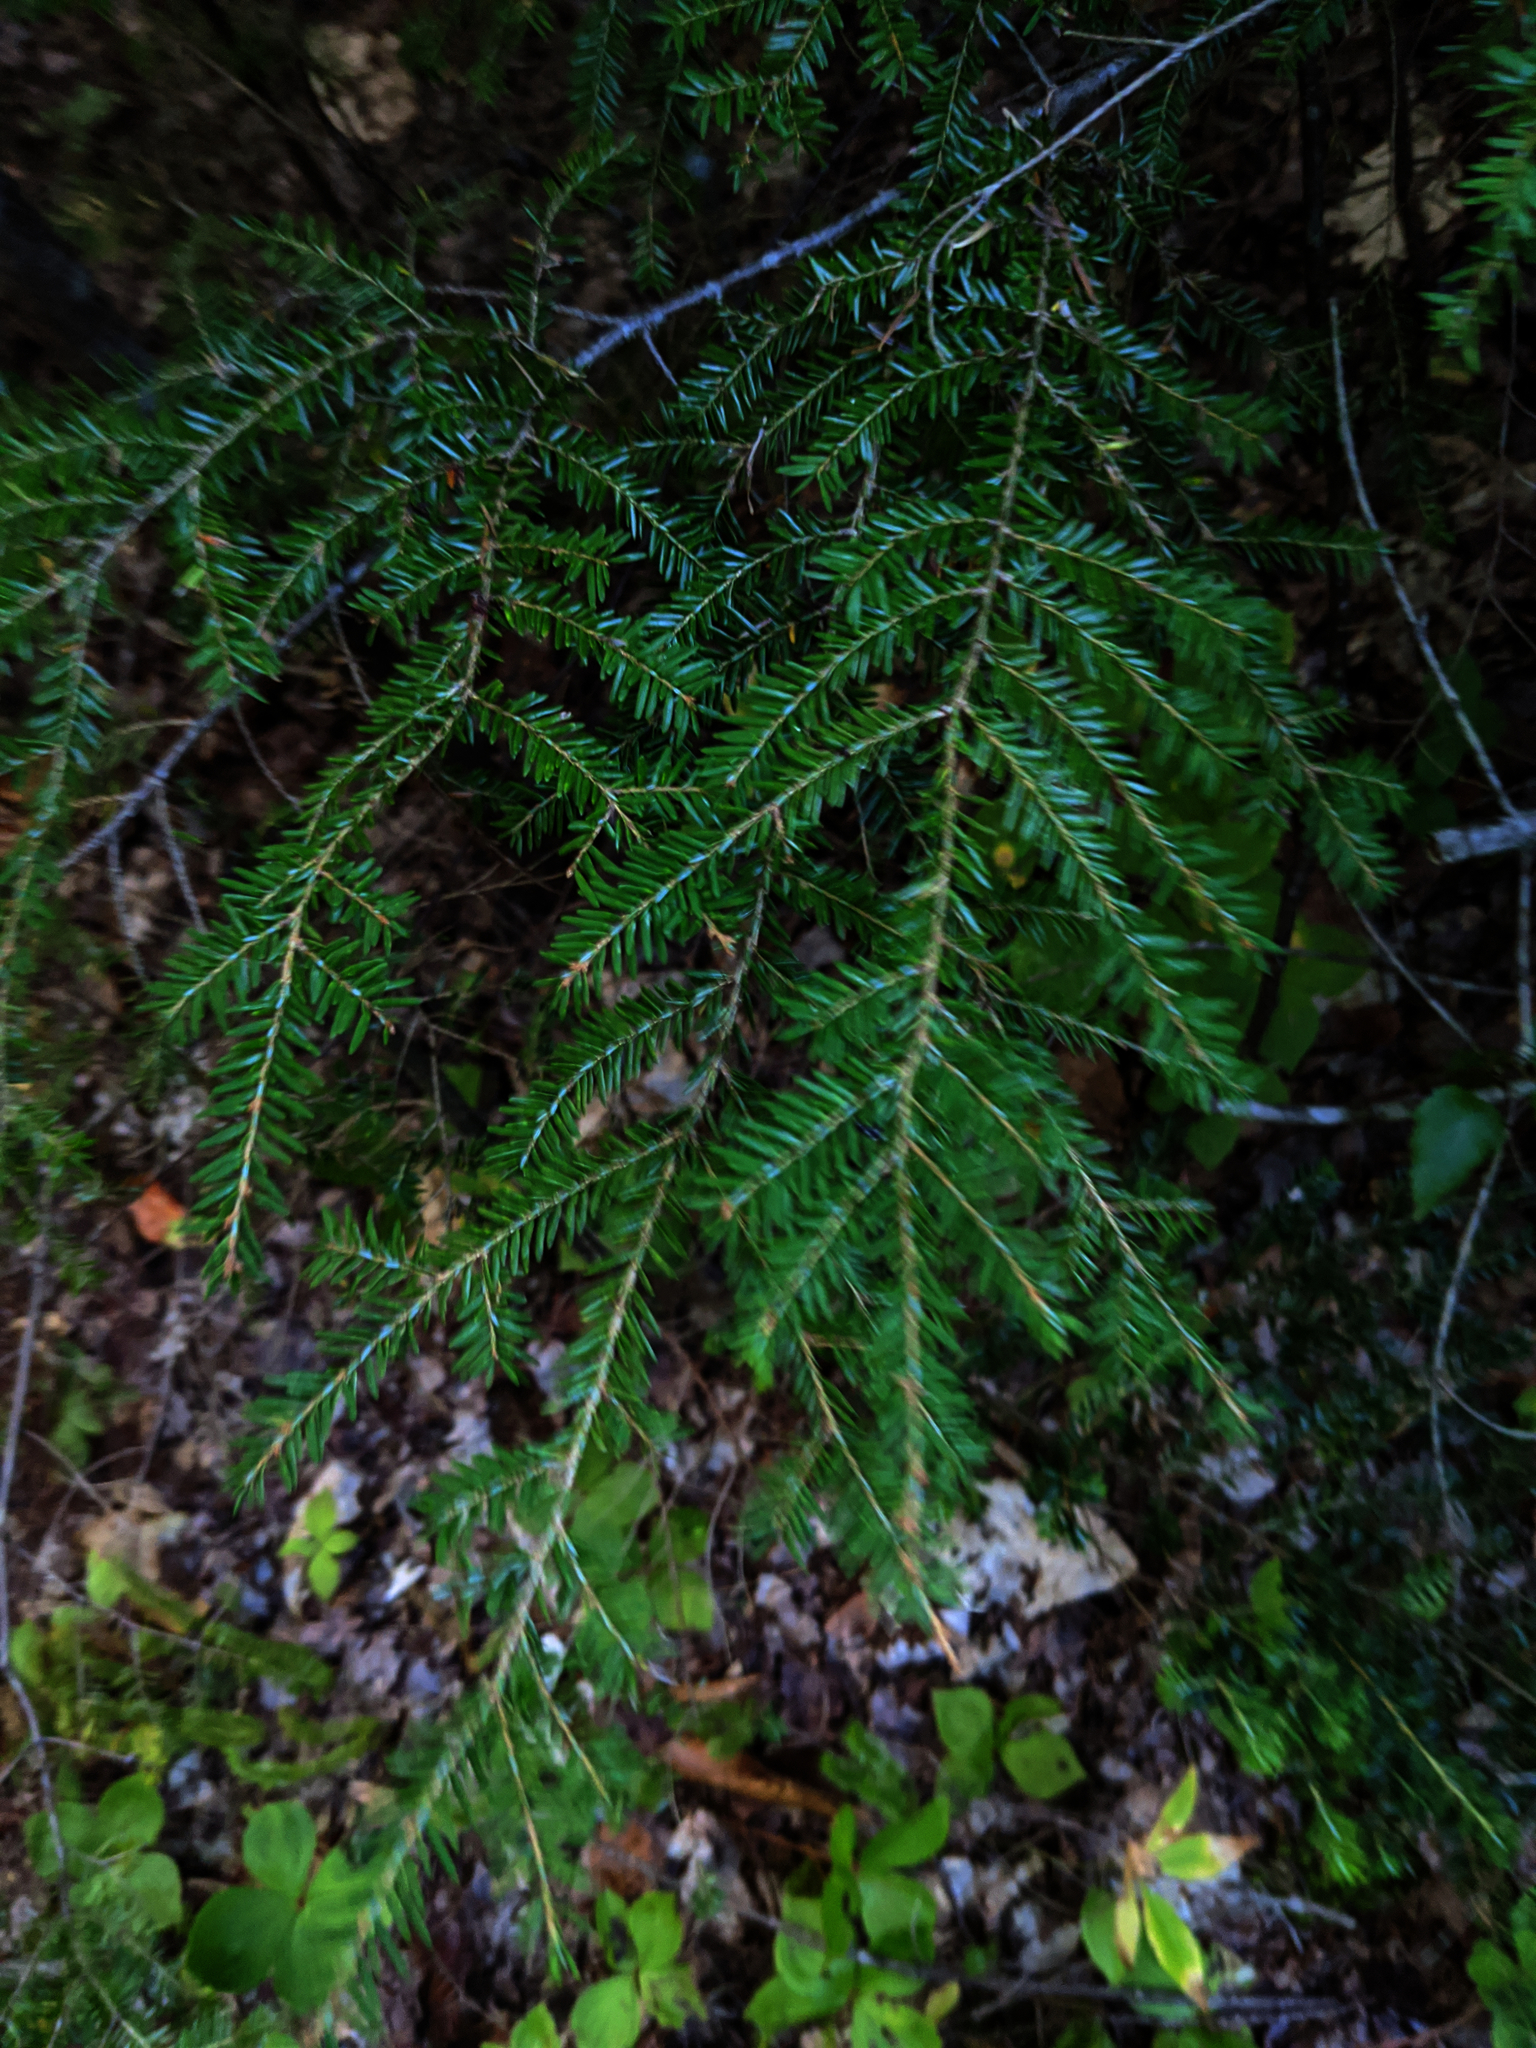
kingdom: Plantae
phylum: Tracheophyta
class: Pinopsida
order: Pinales
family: Pinaceae
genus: Tsuga
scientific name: Tsuga canadensis
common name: Eastern hemlock
